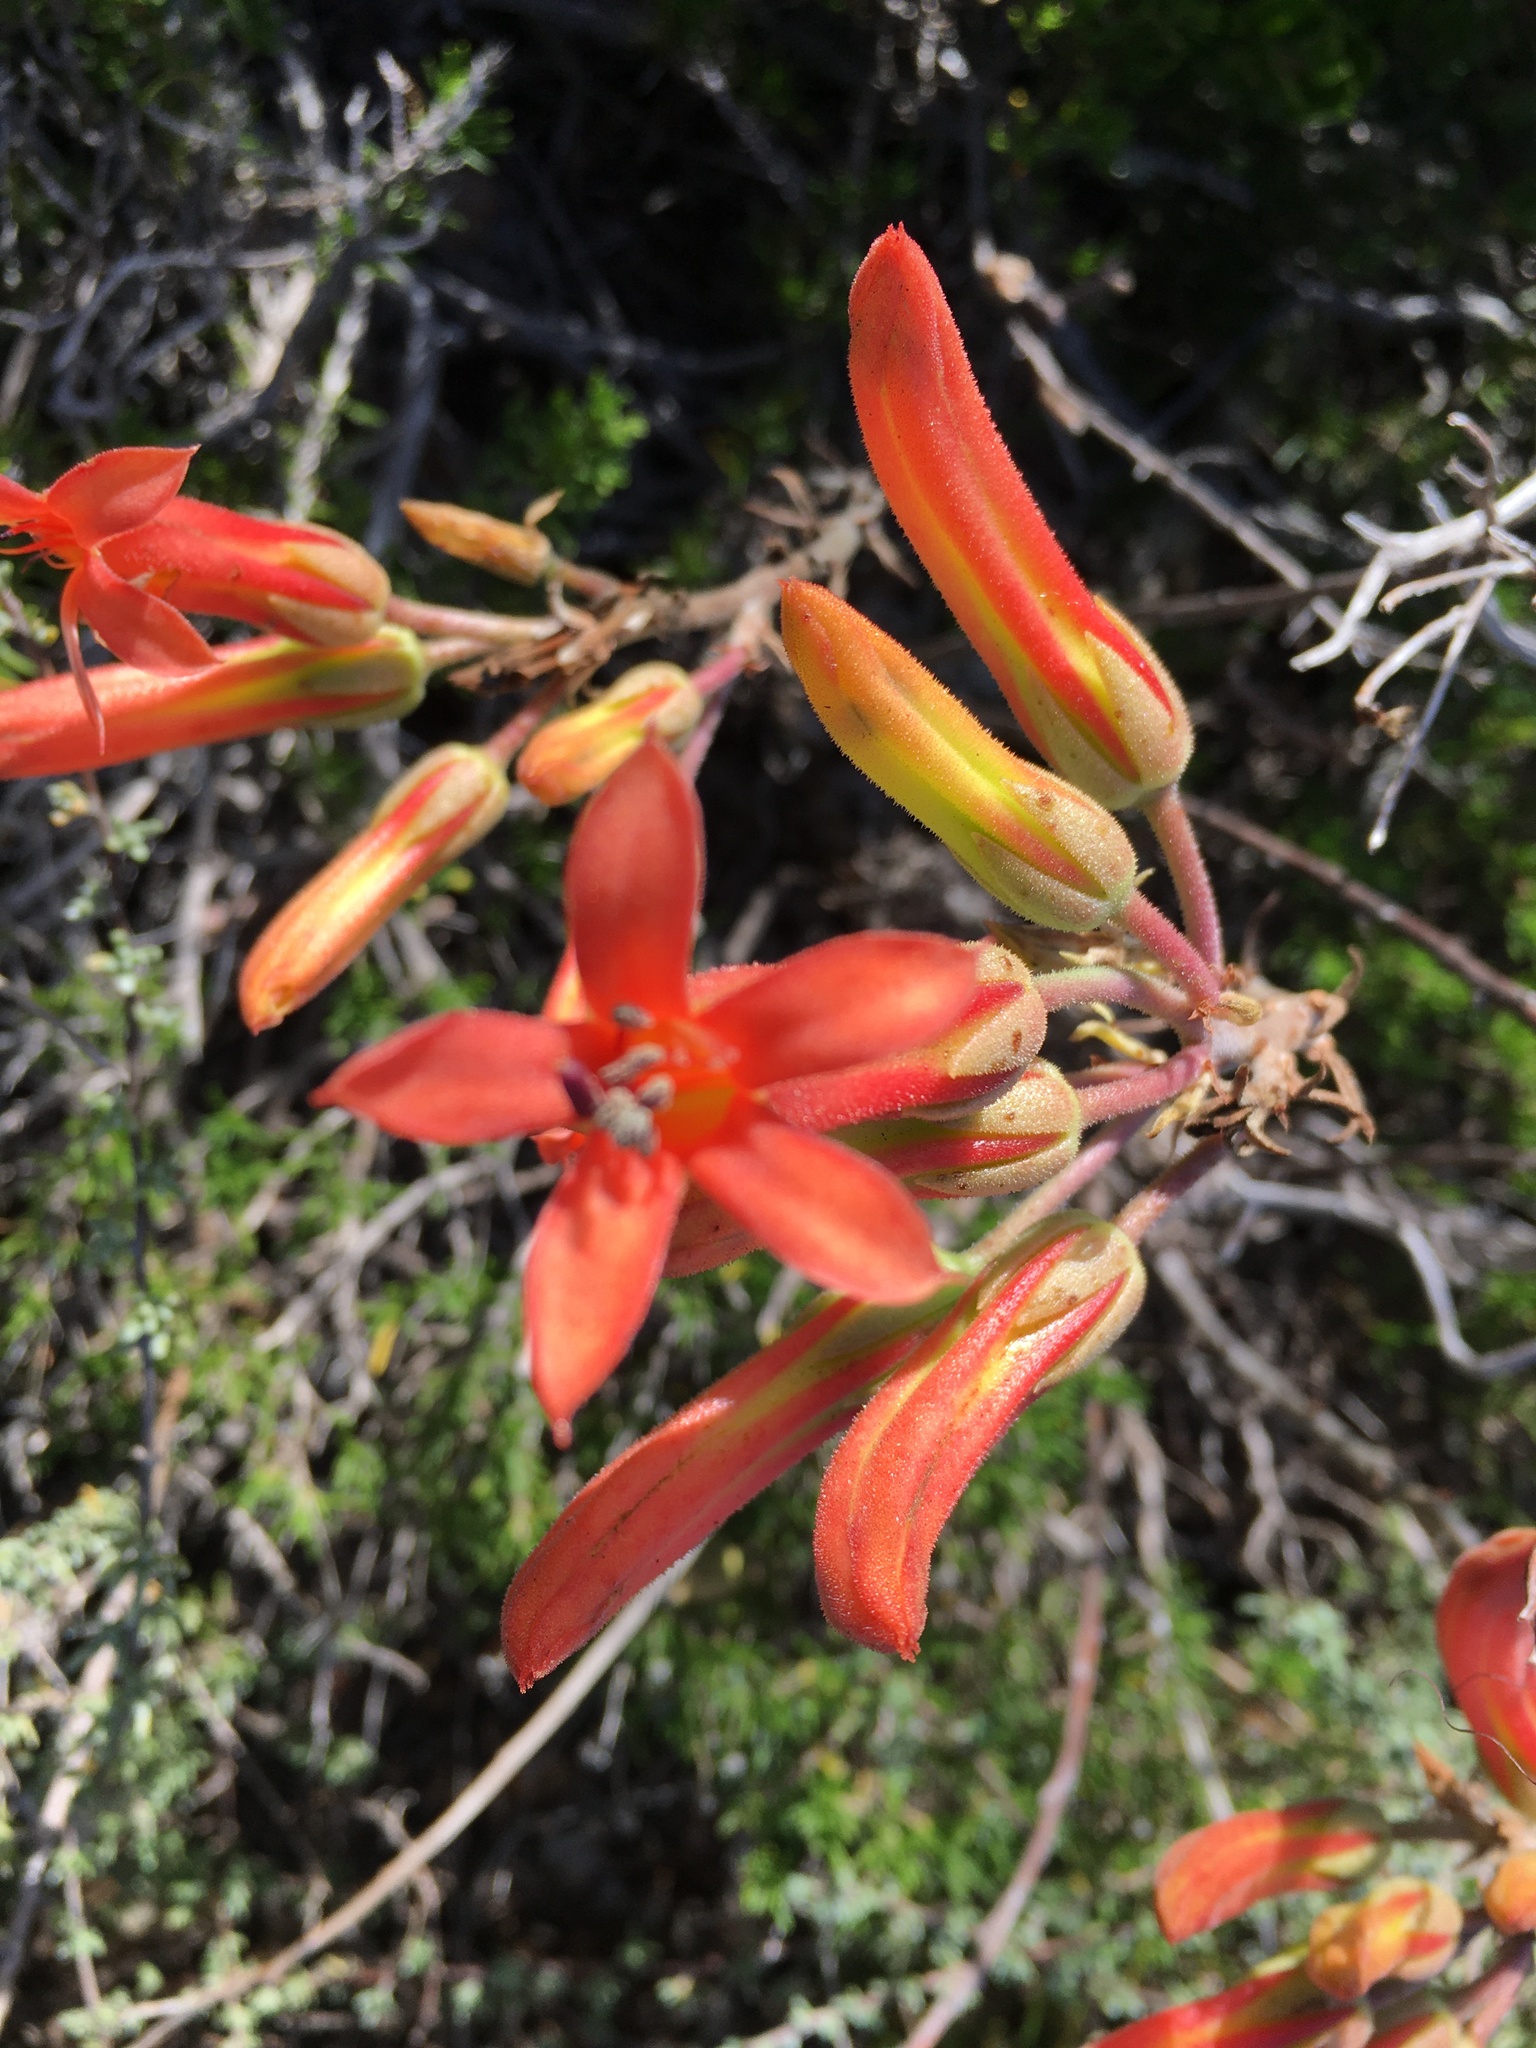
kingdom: Plantae
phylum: Tracheophyta
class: Magnoliopsida
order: Saxifragales
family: Crassulaceae
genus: Tylecodon
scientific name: Tylecodon grandiflorus
